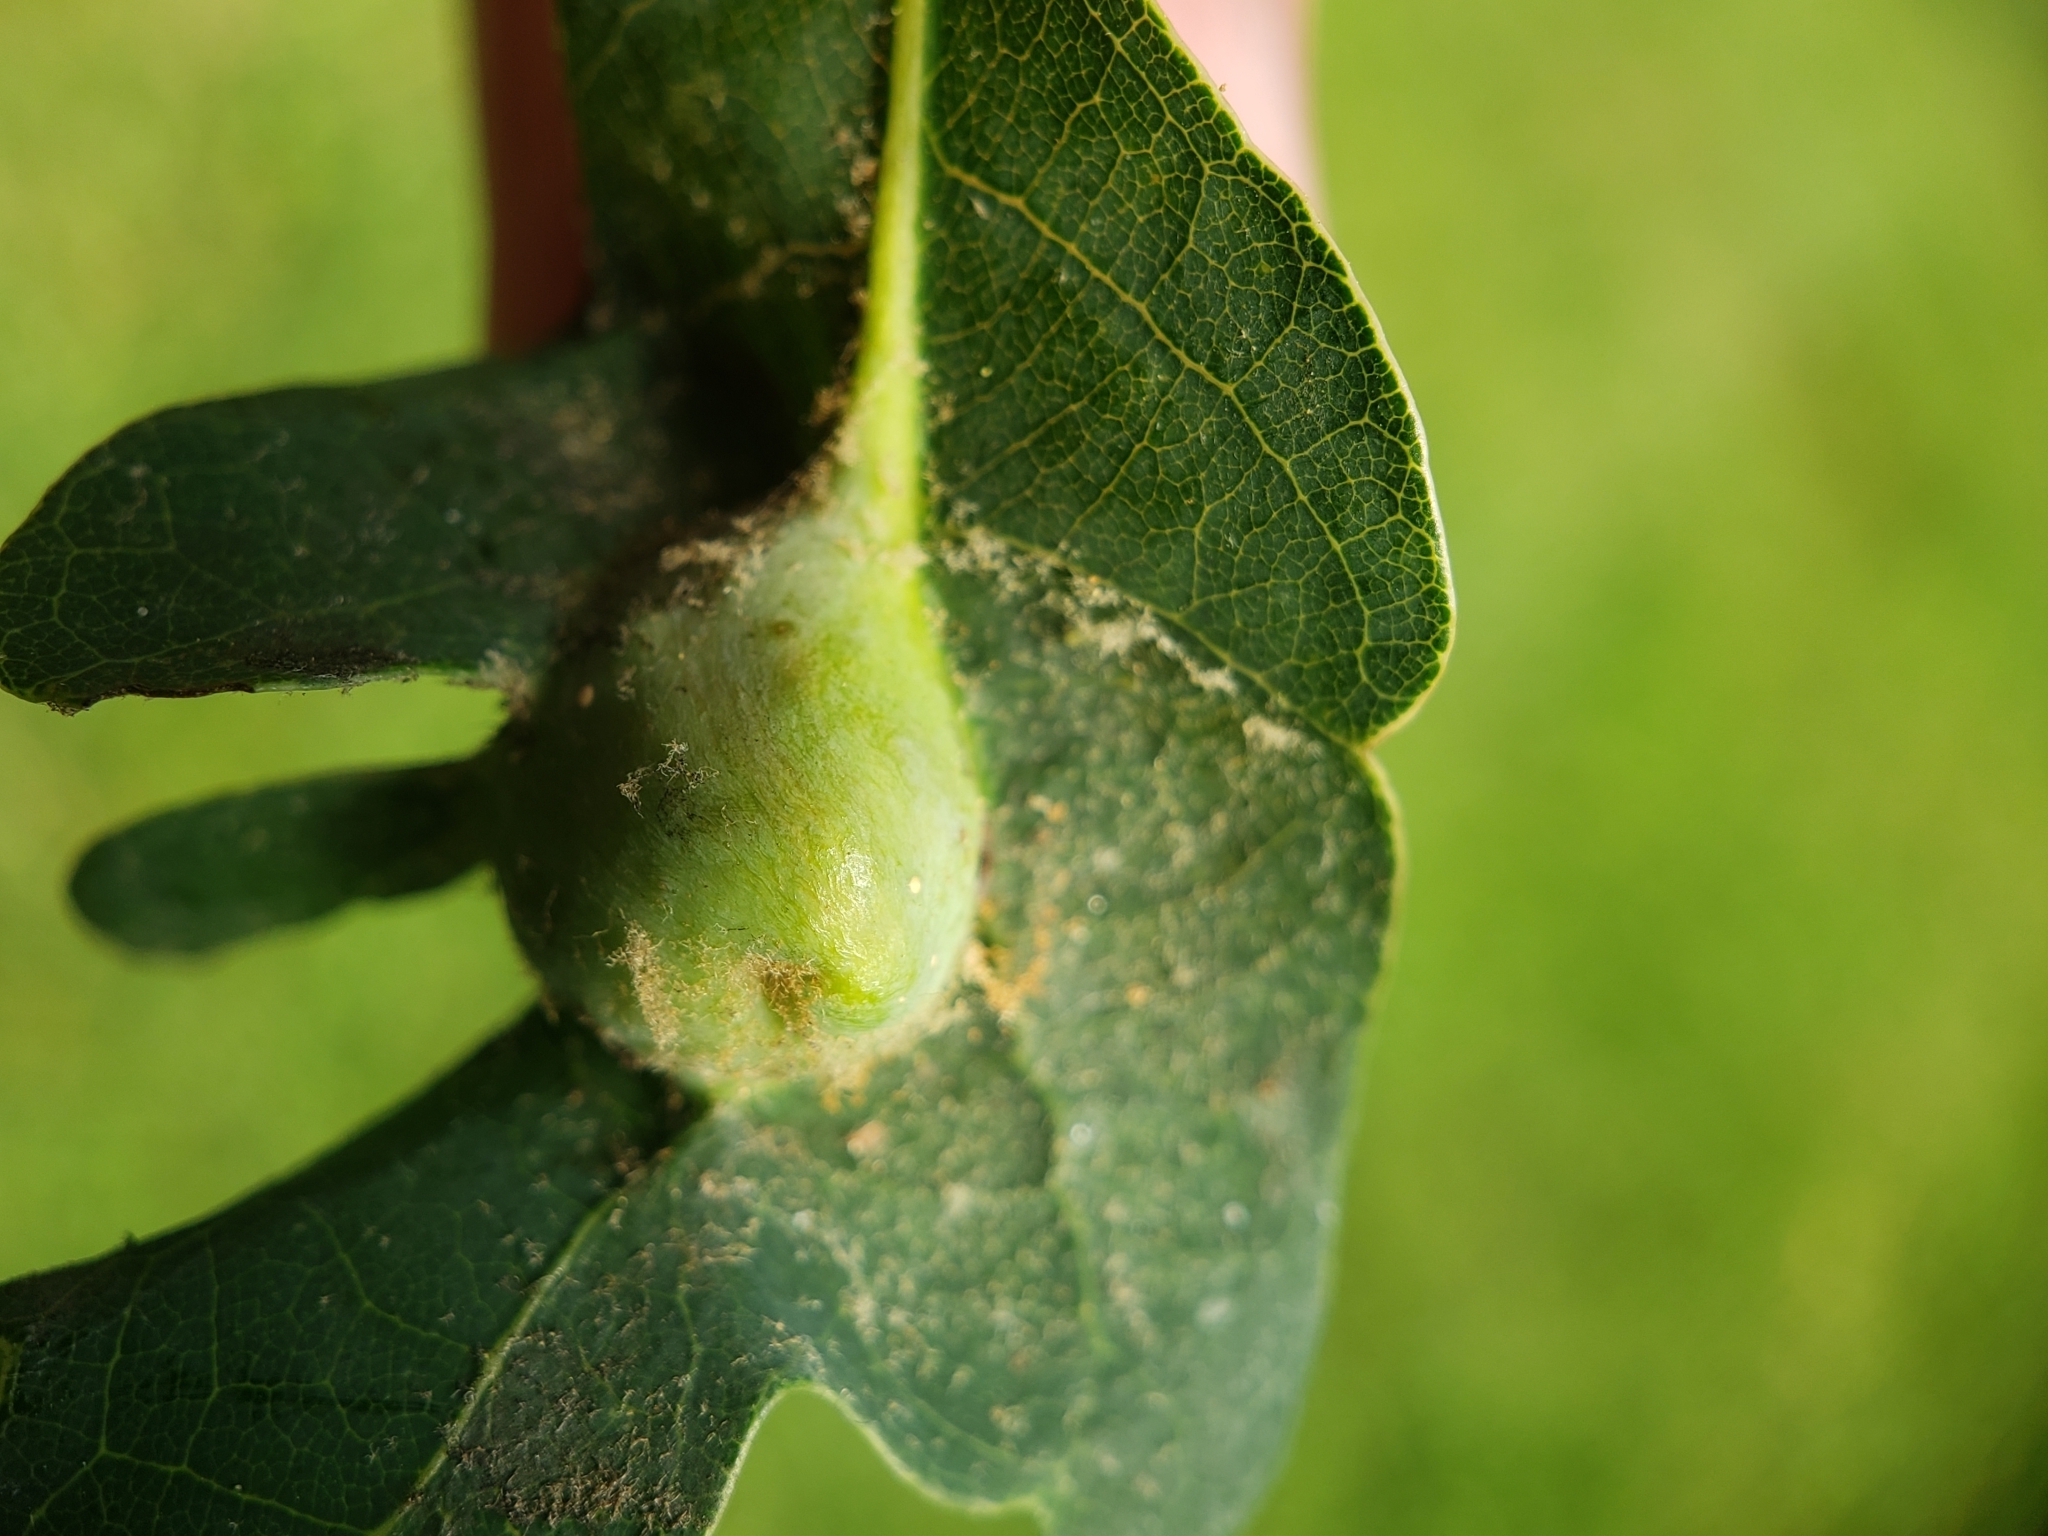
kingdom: Animalia
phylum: Arthropoda
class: Insecta
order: Hymenoptera
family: Cynipidae
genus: Andricus
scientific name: Andricus
